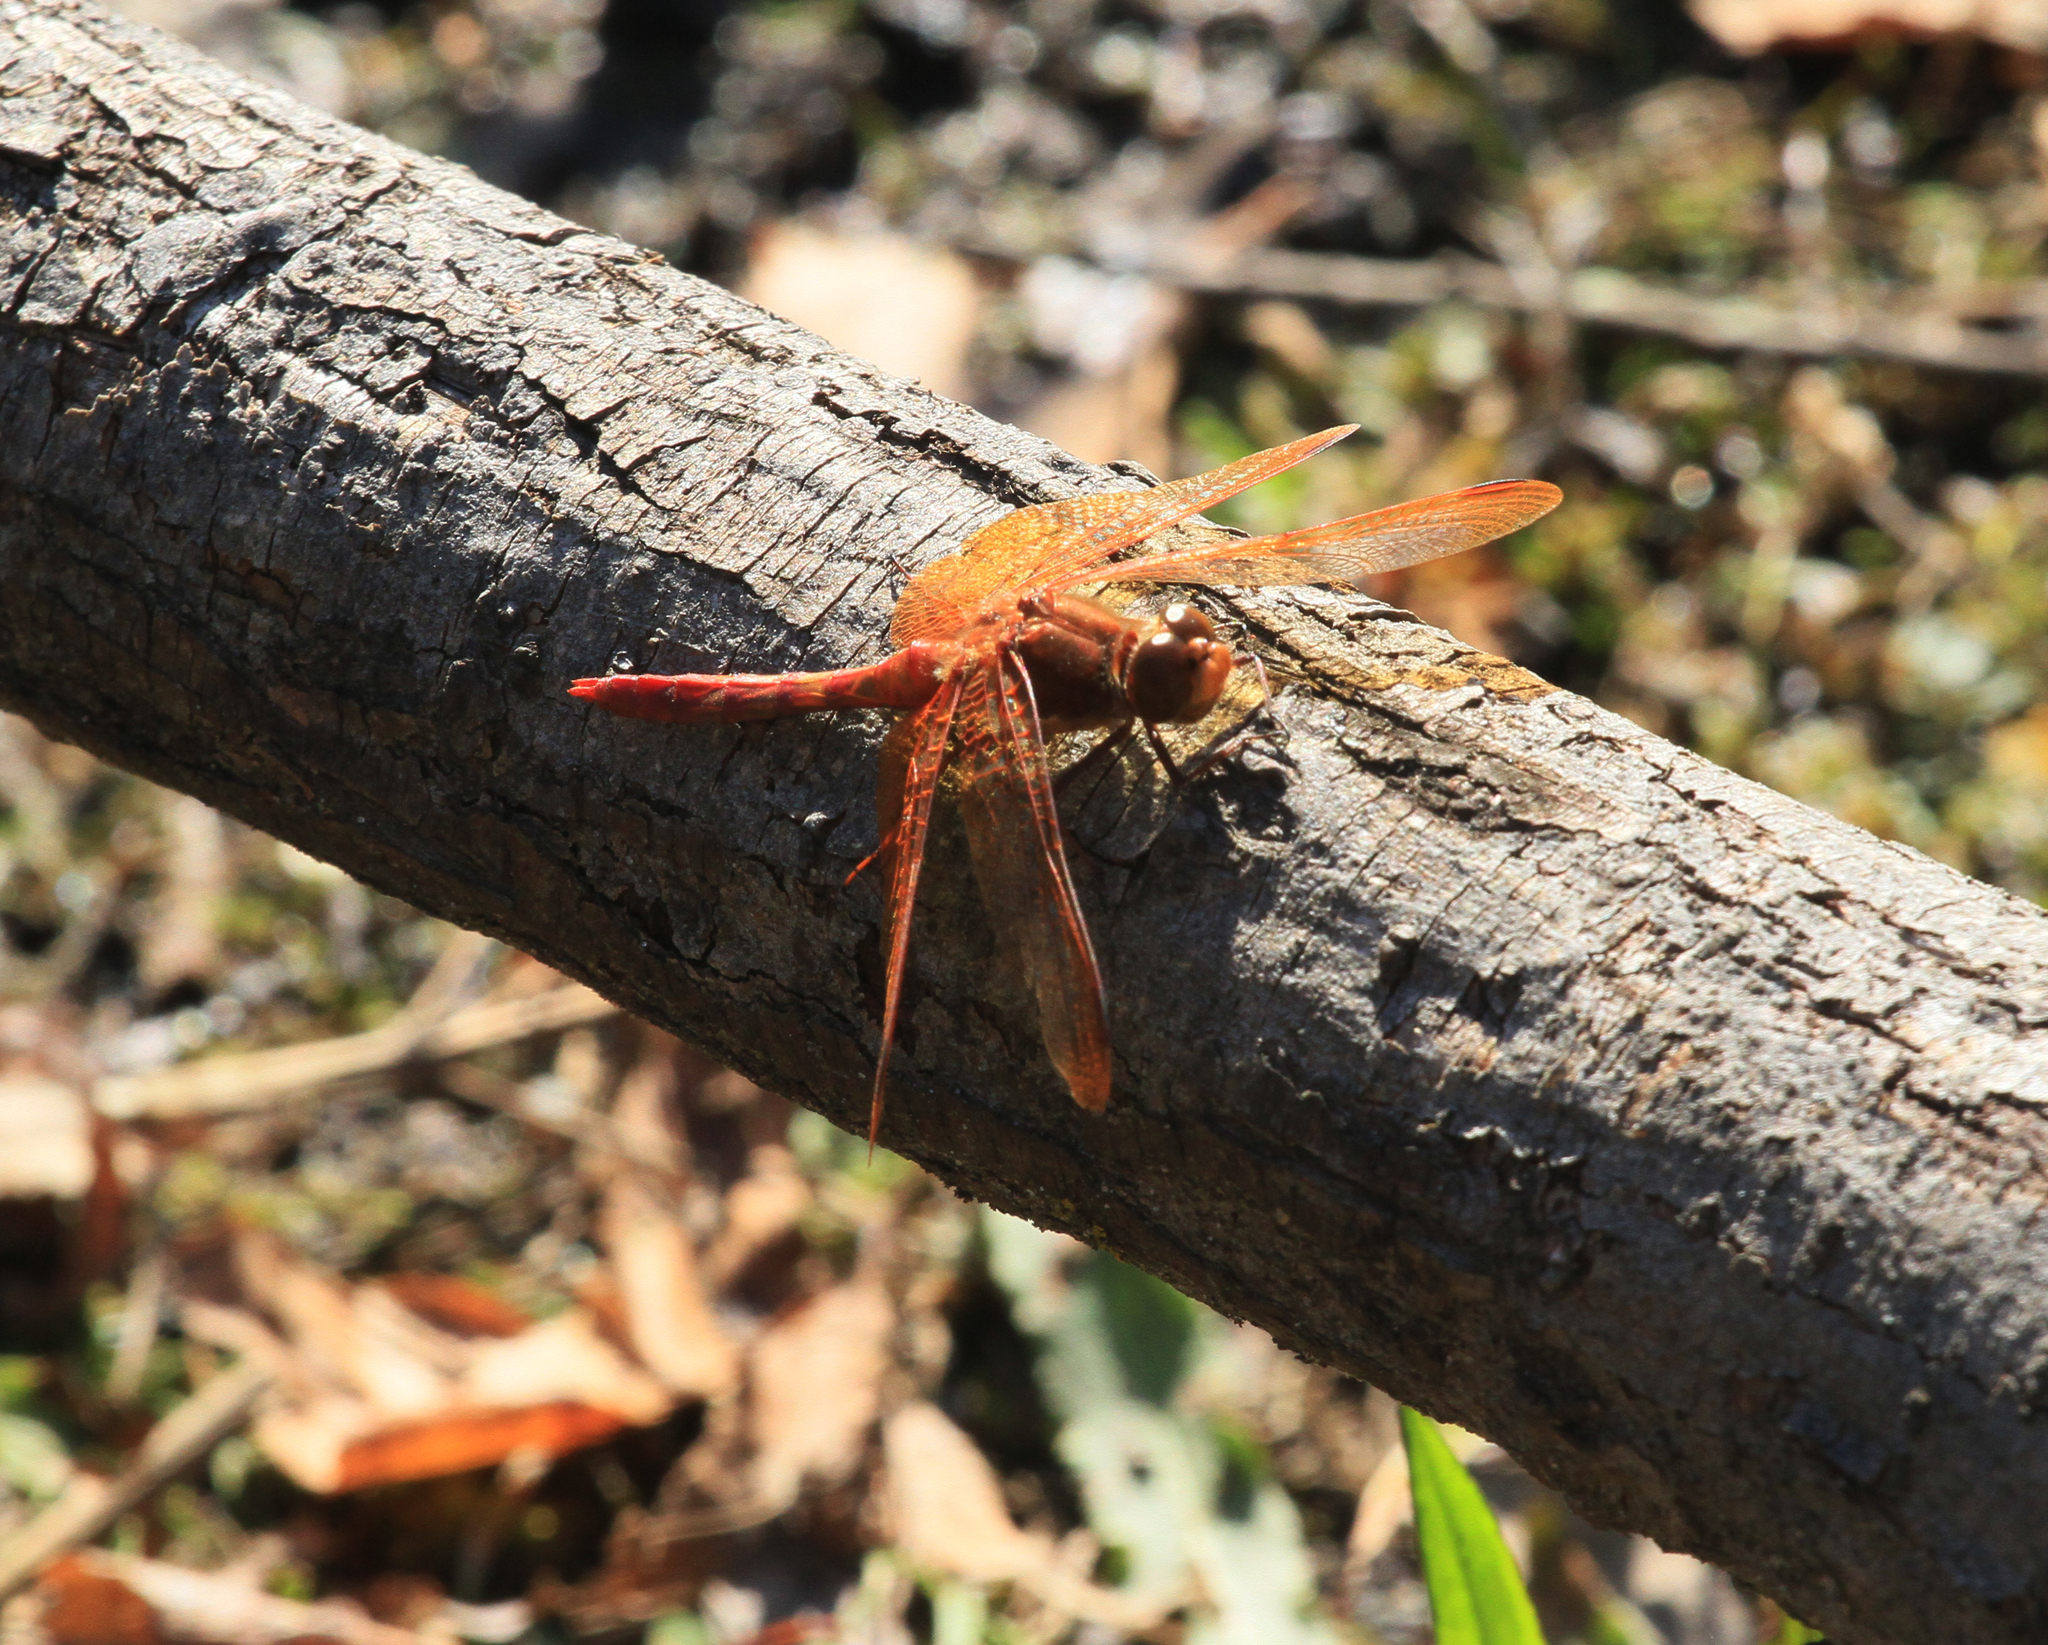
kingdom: Animalia
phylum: Arthropoda
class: Insecta
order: Odonata
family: Libellulidae
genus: Sympetrum
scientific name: Sympetrum croceolum
